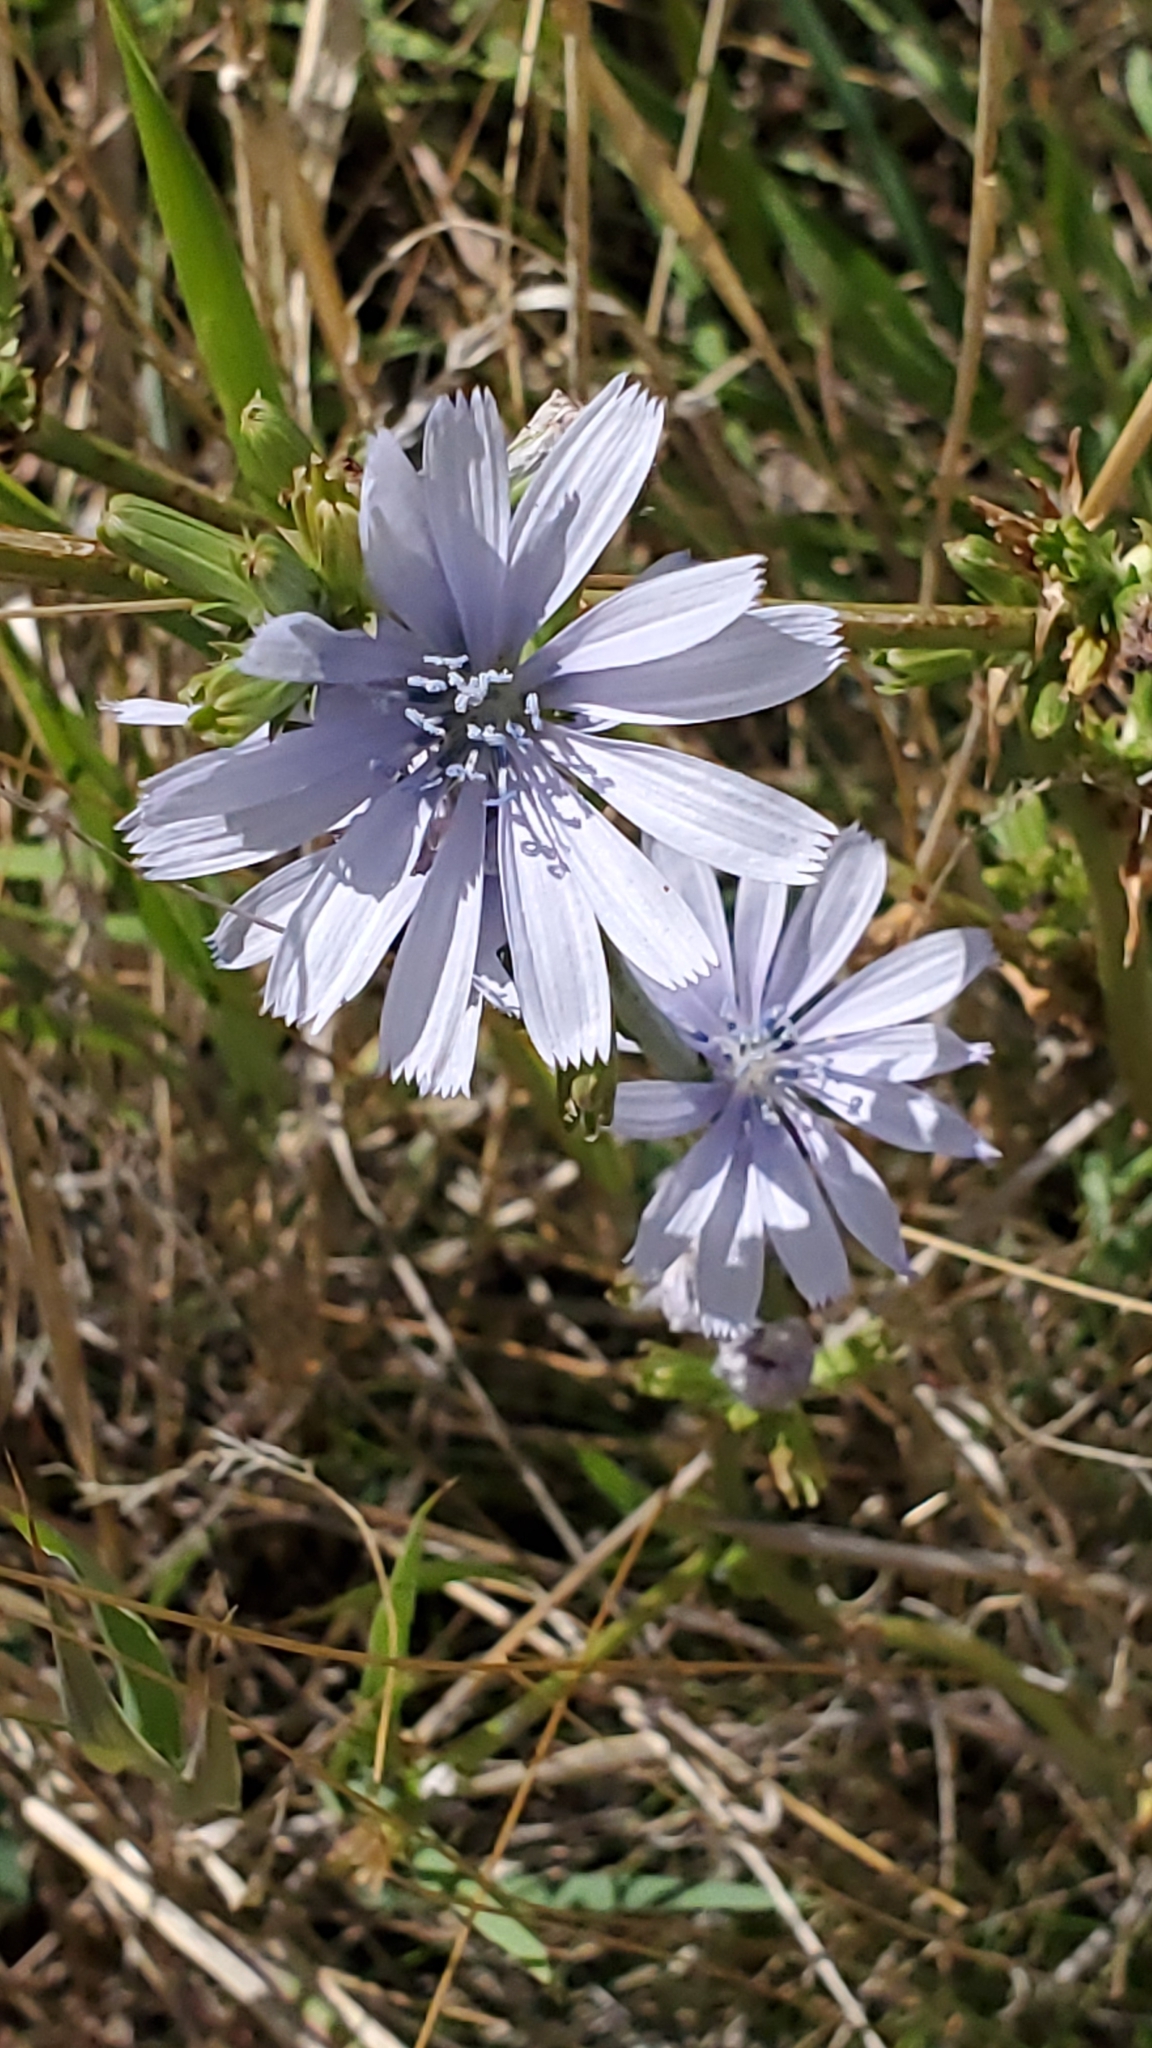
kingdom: Plantae
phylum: Tracheophyta
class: Magnoliopsida
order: Asterales
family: Asteraceae
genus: Cichorium
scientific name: Cichorium intybus
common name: Chicory
